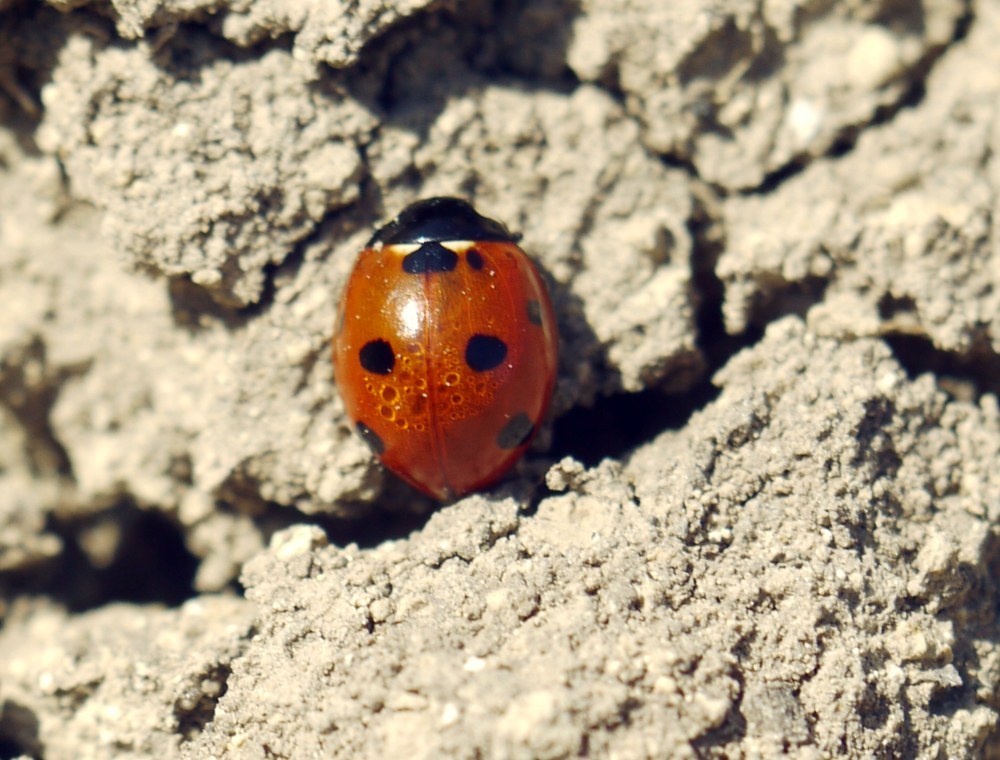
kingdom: Animalia
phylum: Arthropoda
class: Insecta
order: Coleoptera
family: Coccinellidae
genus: Coccinella
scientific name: Coccinella septempunctata
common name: Sevenspotted lady beetle
